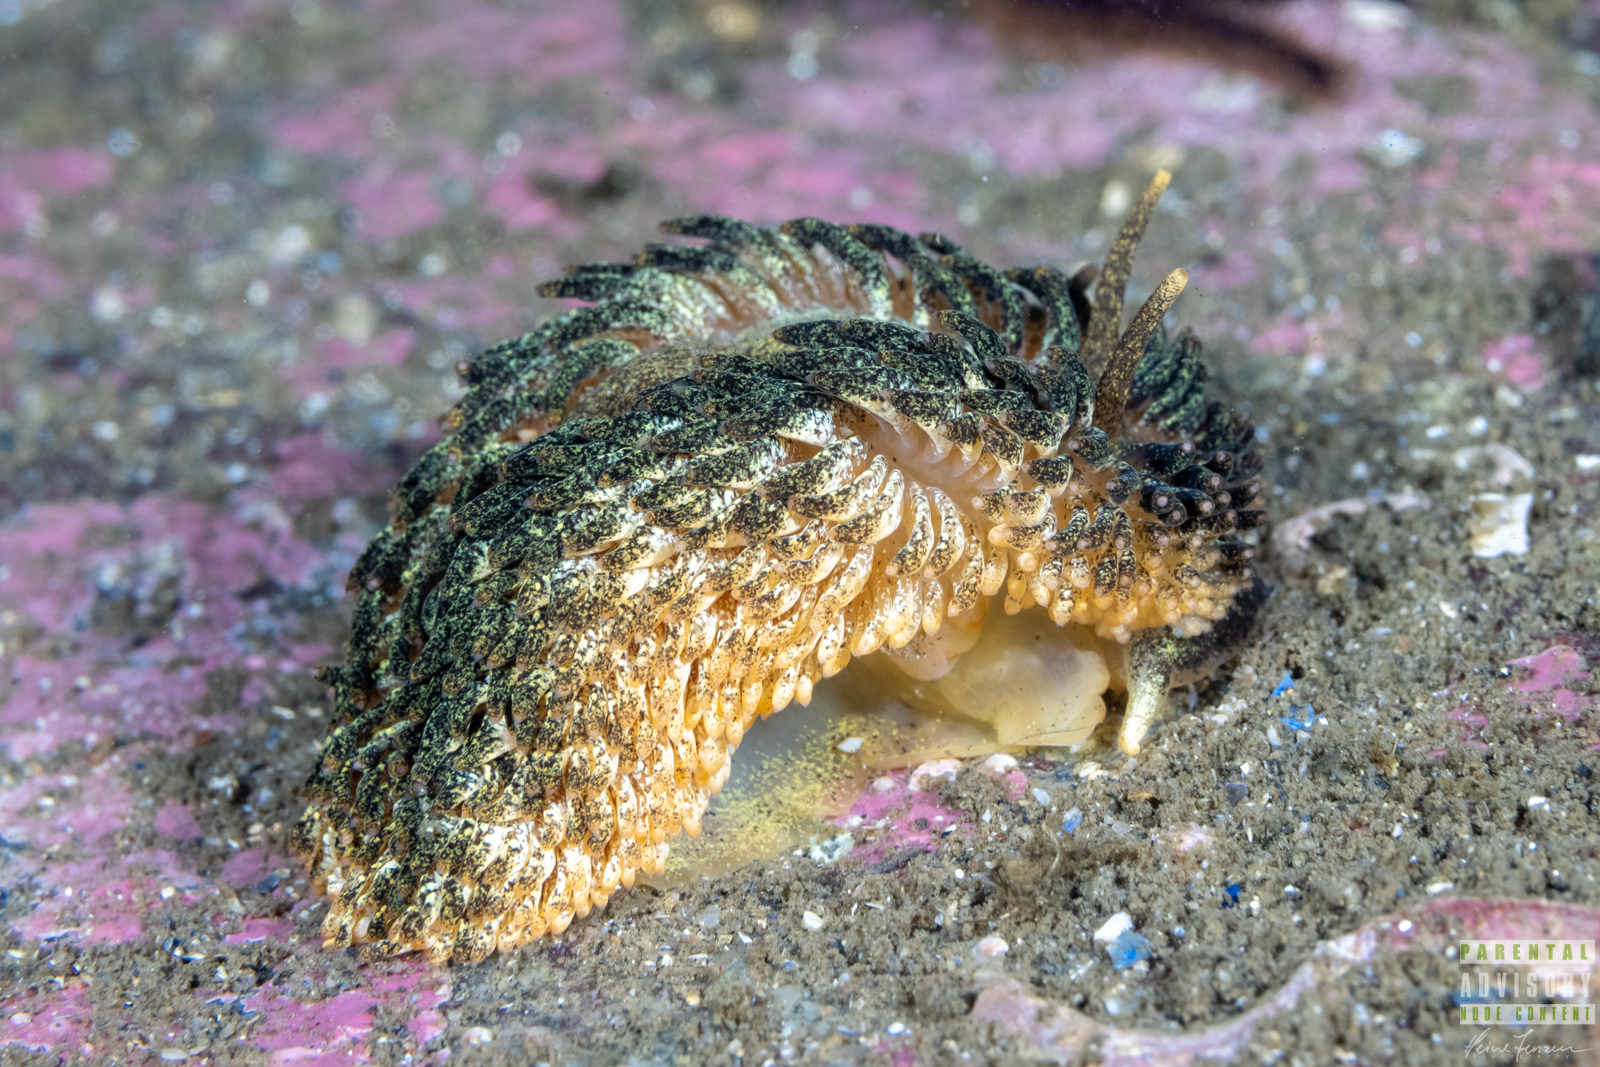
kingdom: Animalia
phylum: Mollusca
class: Gastropoda
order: Nudibranchia
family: Aeolidiidae
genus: Aeolidia
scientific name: Aeolidia papillosa
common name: Common grey sea slug
